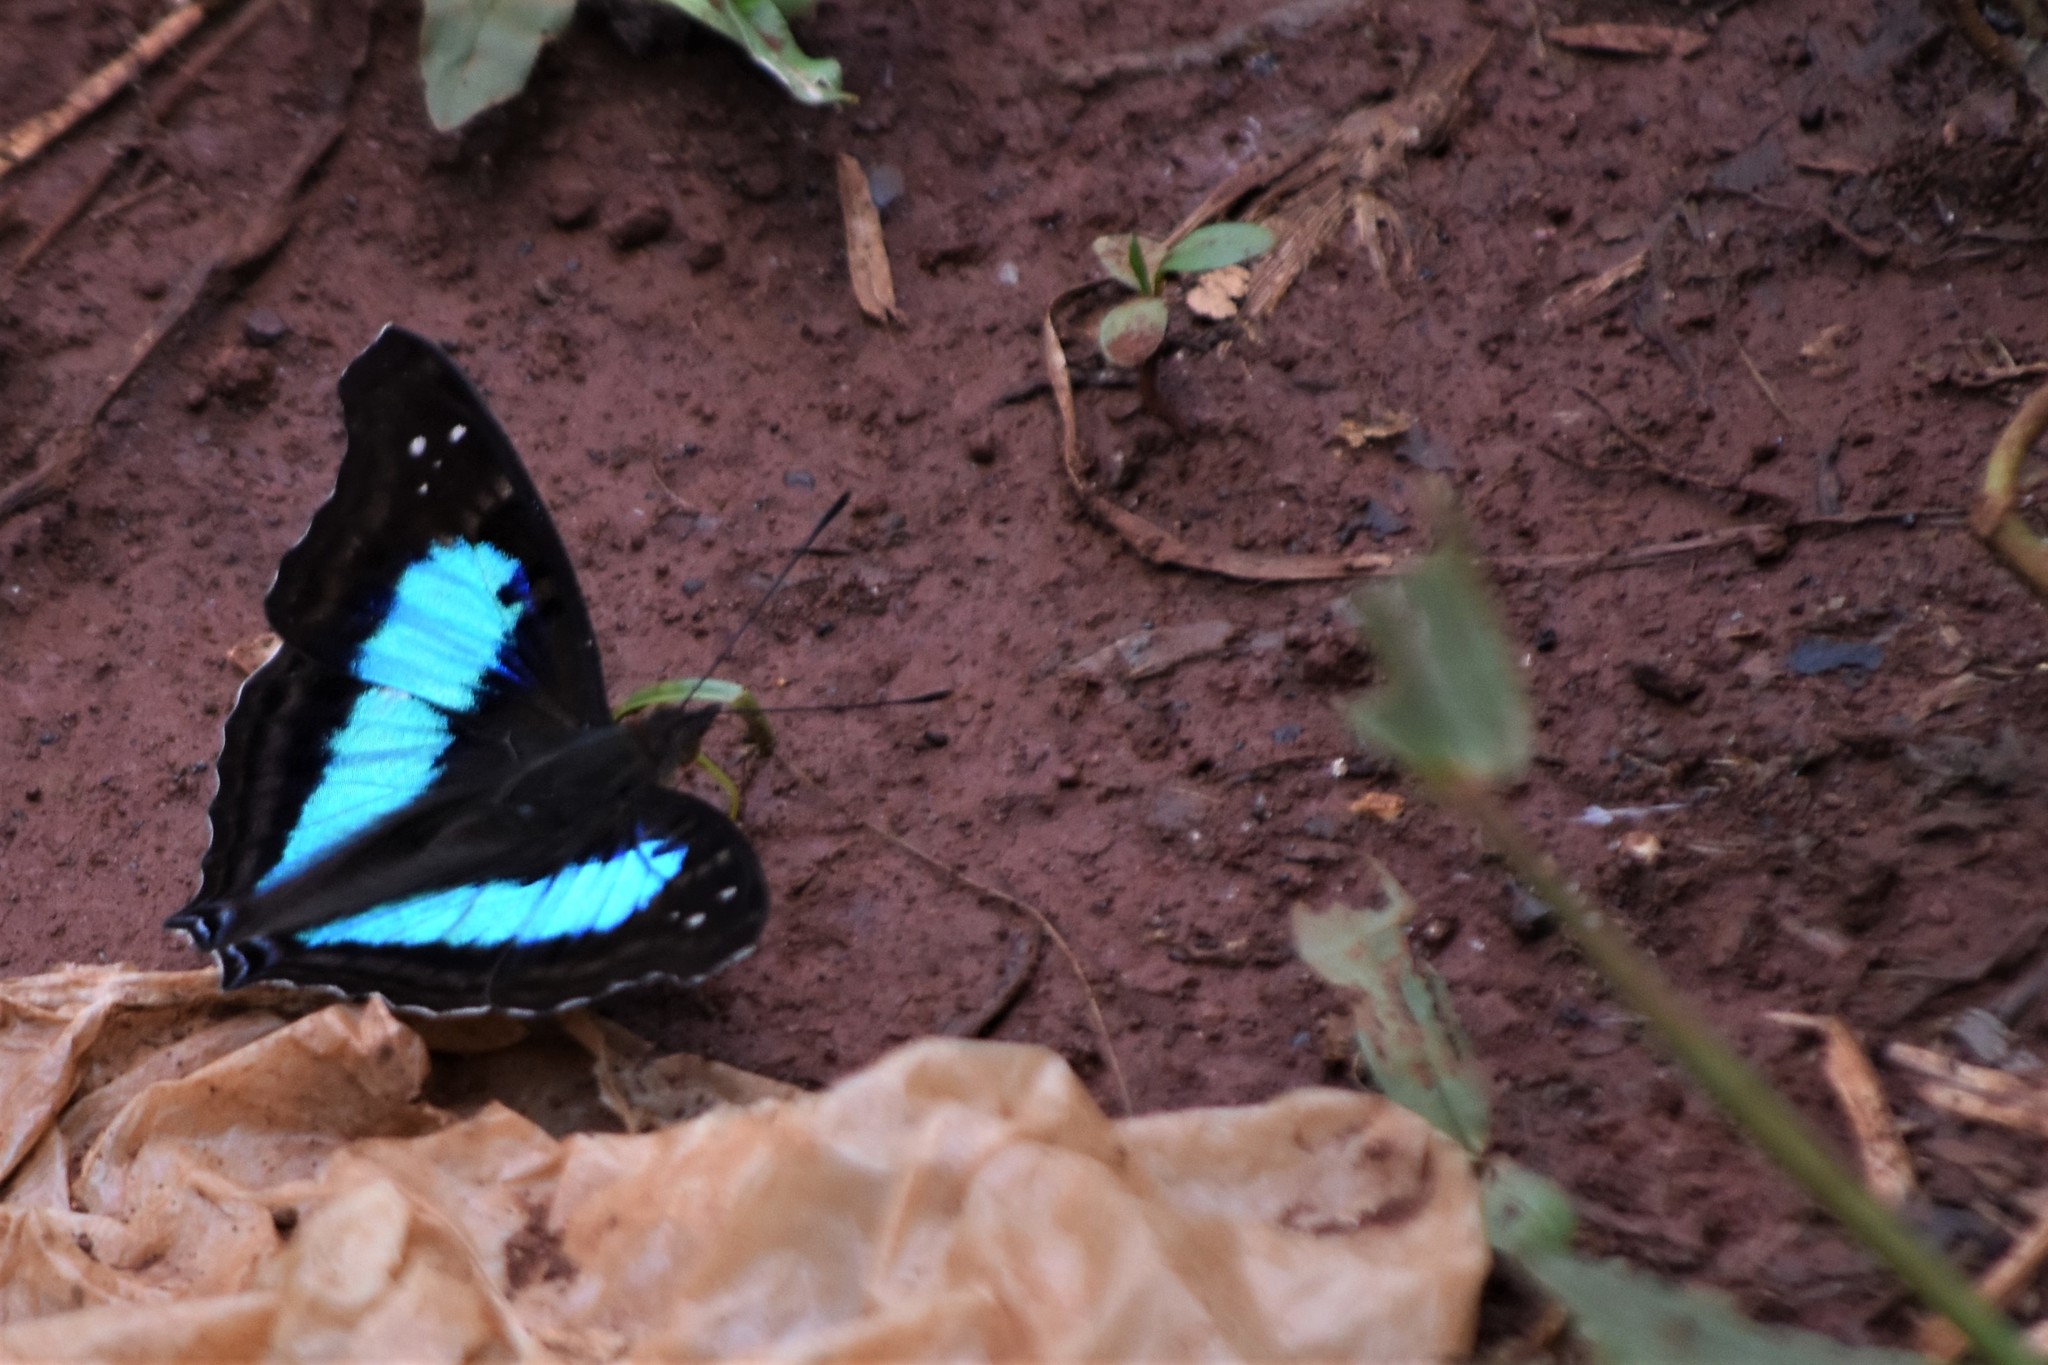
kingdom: Animalia
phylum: Arthropoda
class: Insecta
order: Lepidoptera
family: Nymphalidae
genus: Doxocopa
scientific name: Doxocopa laurentia
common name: Turquoise emperor
